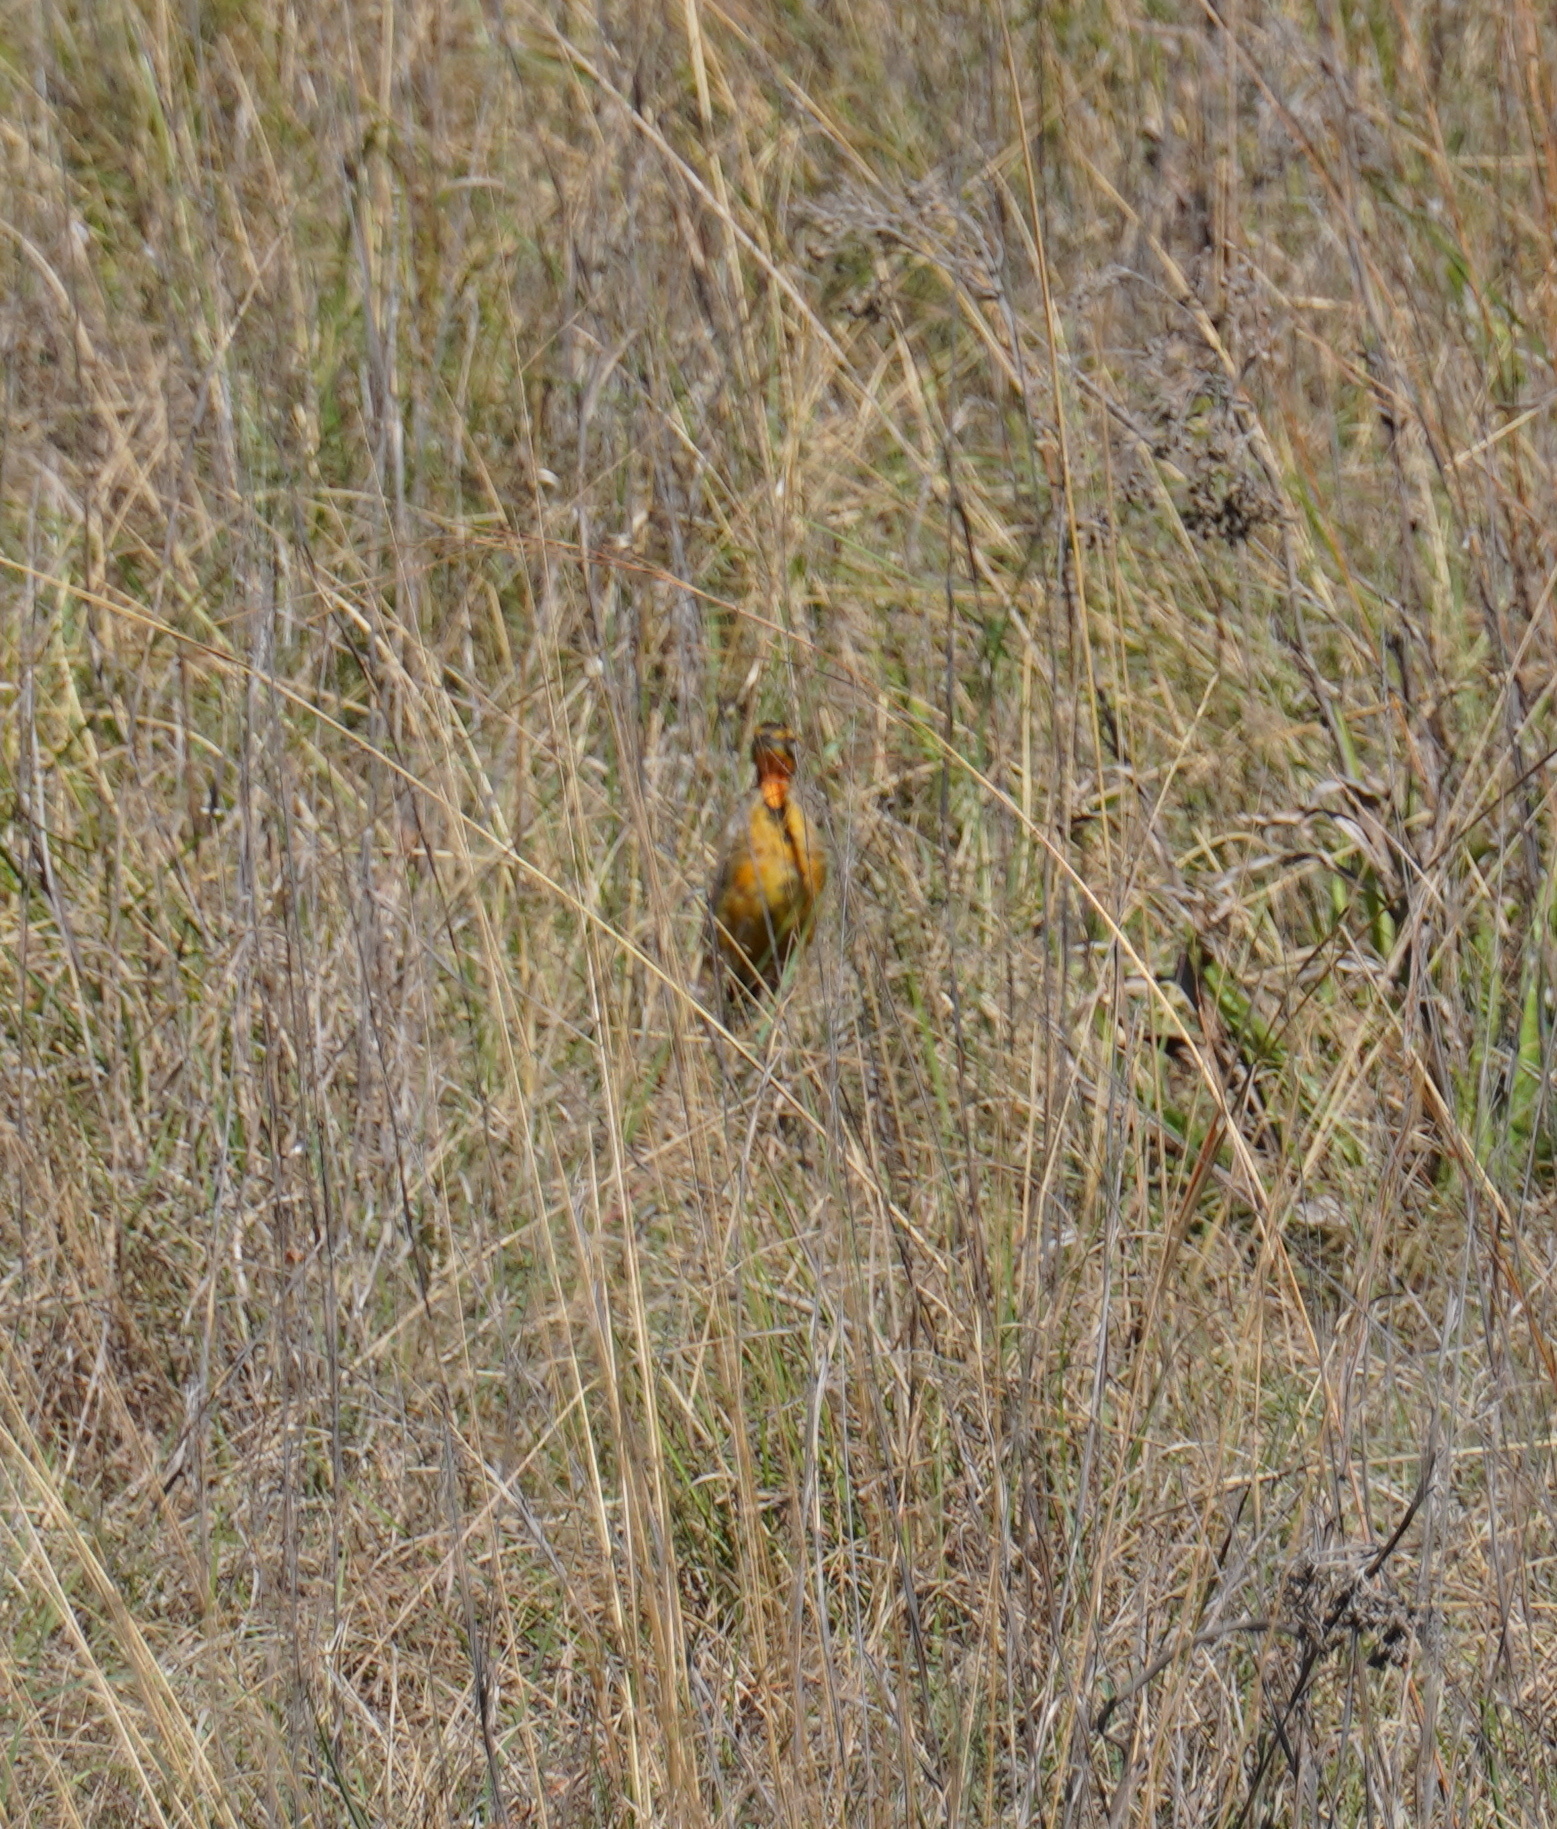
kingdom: Animalia
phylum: Chordata
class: Aves
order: Passeriformes
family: Motacillidae
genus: Macronyx
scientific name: Macronyx capensis
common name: Cape longclaw
